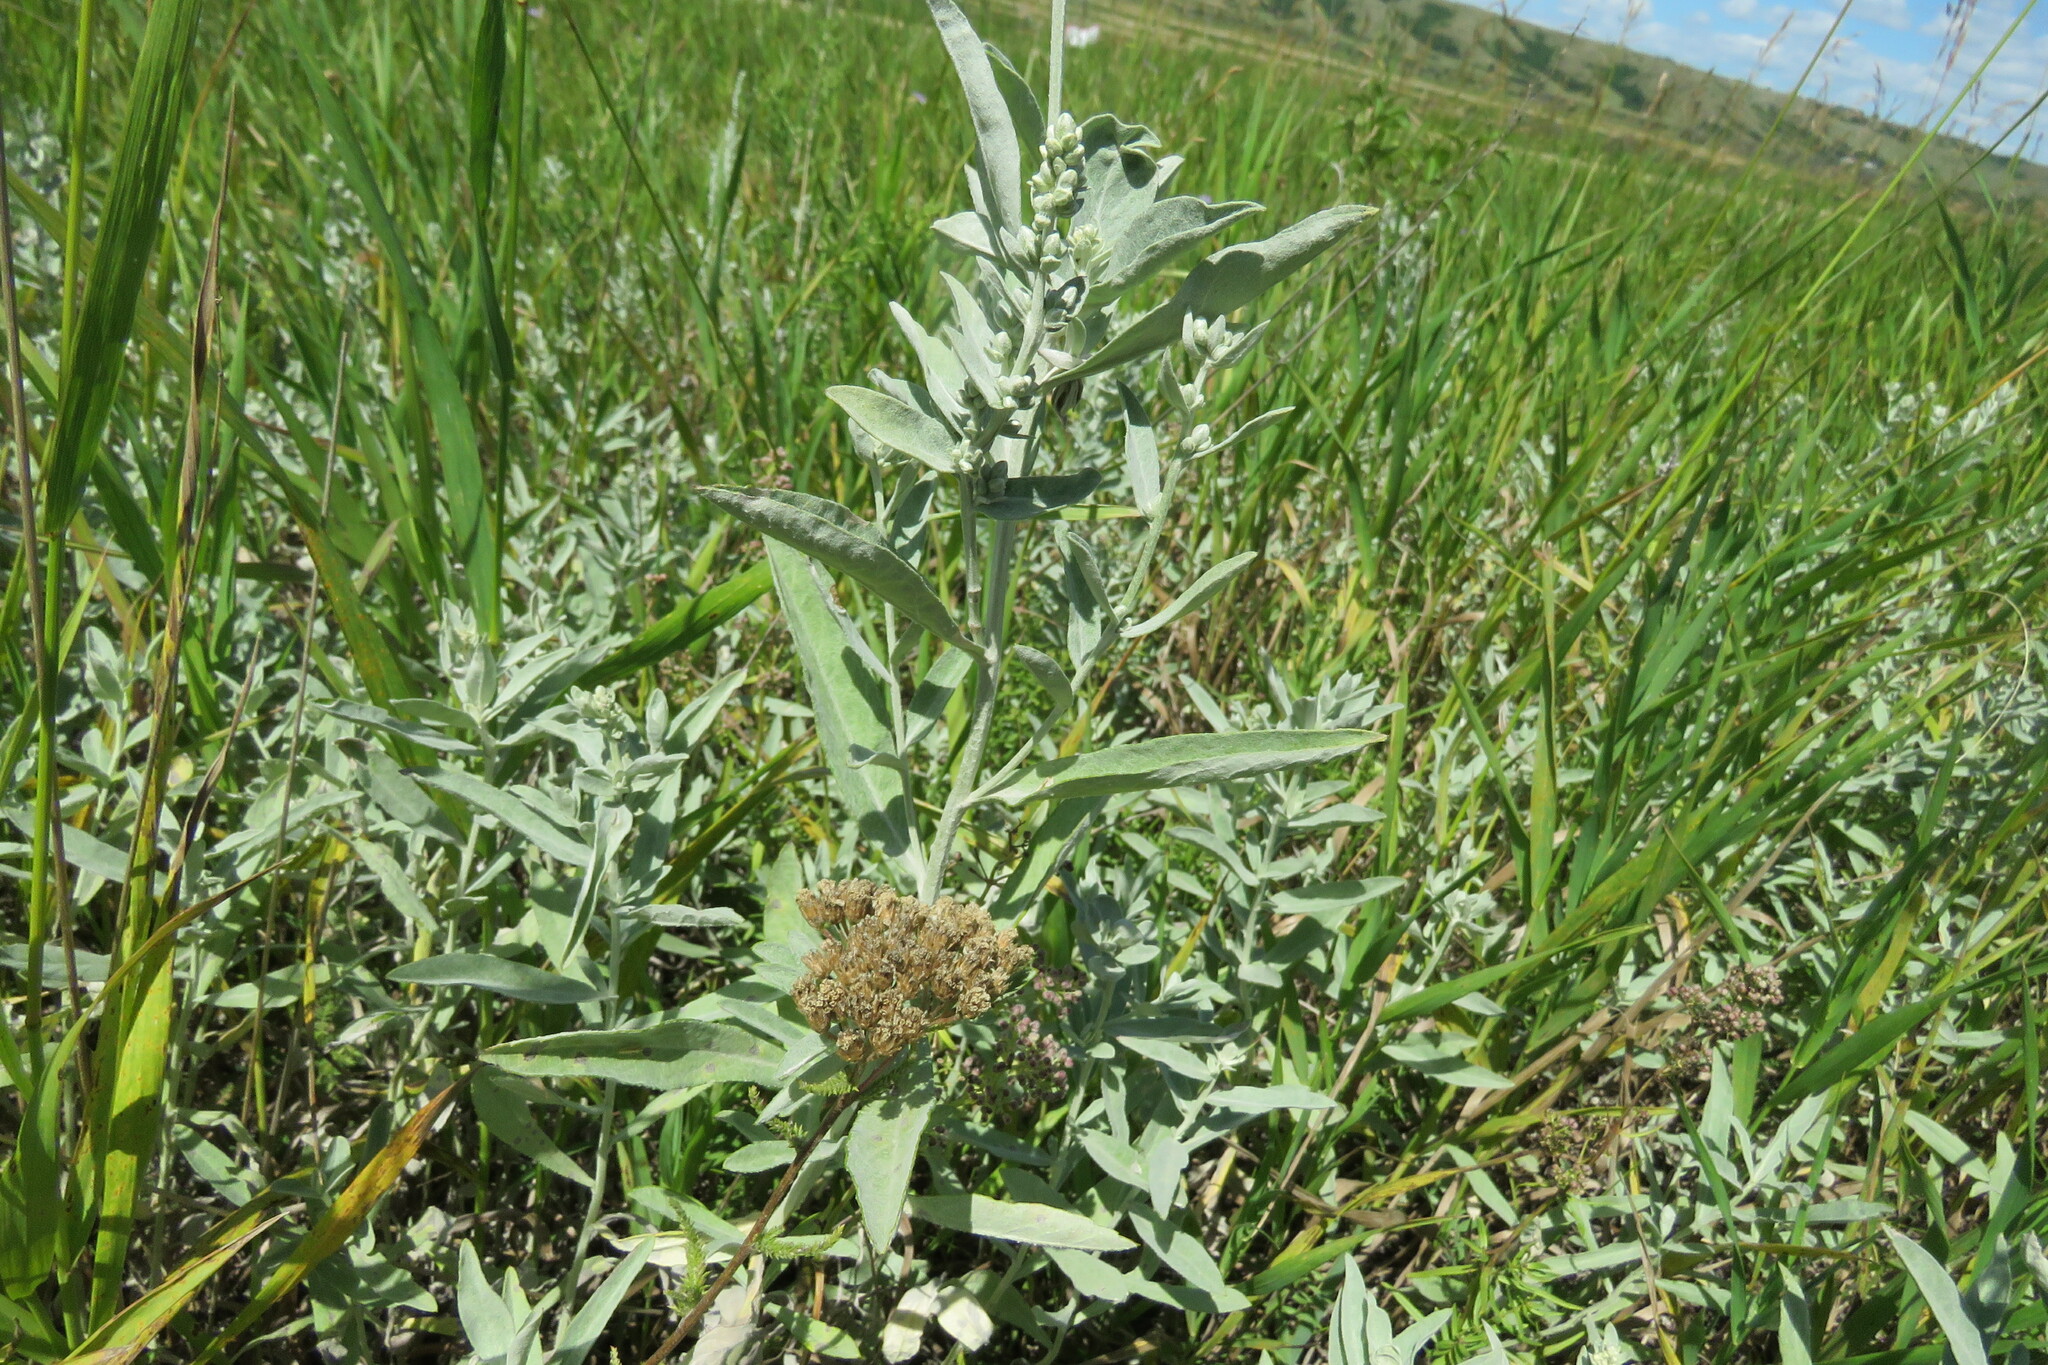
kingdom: Plantae
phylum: Tracheophyta
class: Magnoliopsida
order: Asterales
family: Asteraceae
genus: Artemisia
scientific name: Artemisia ludoviciana
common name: Western mugwort
